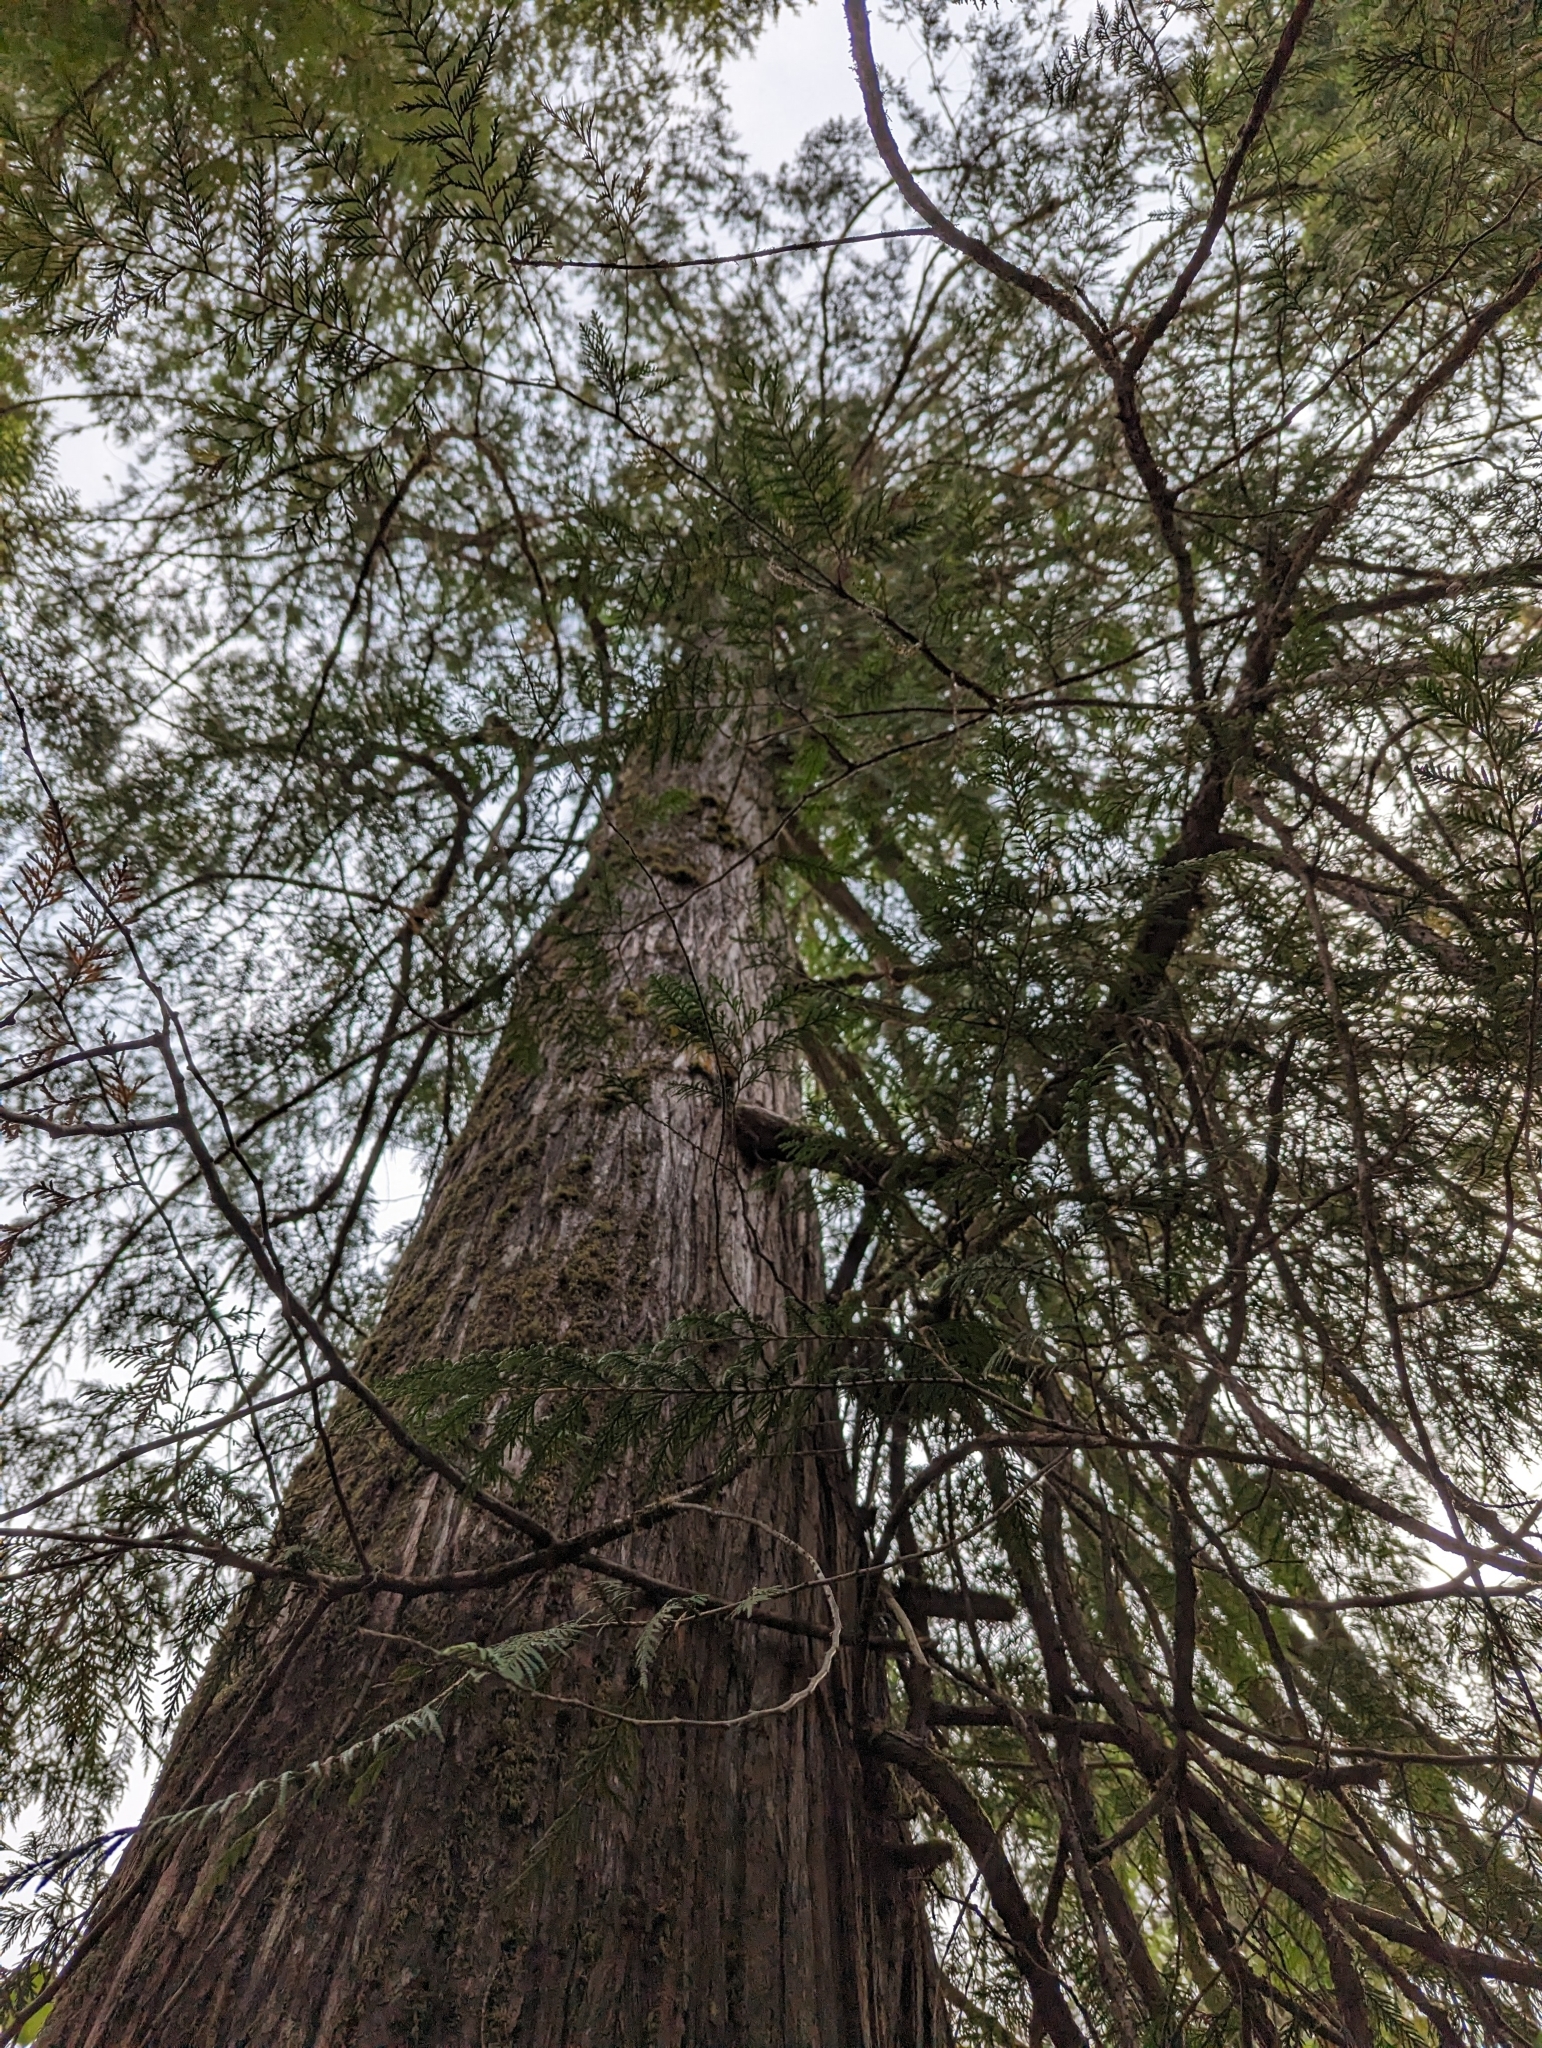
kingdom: Plantae
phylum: Tracheophyta
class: Pinopsida
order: Pinales
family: Cupressaceae
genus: Thuja
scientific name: Thuja plicata
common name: Western red-cedar
